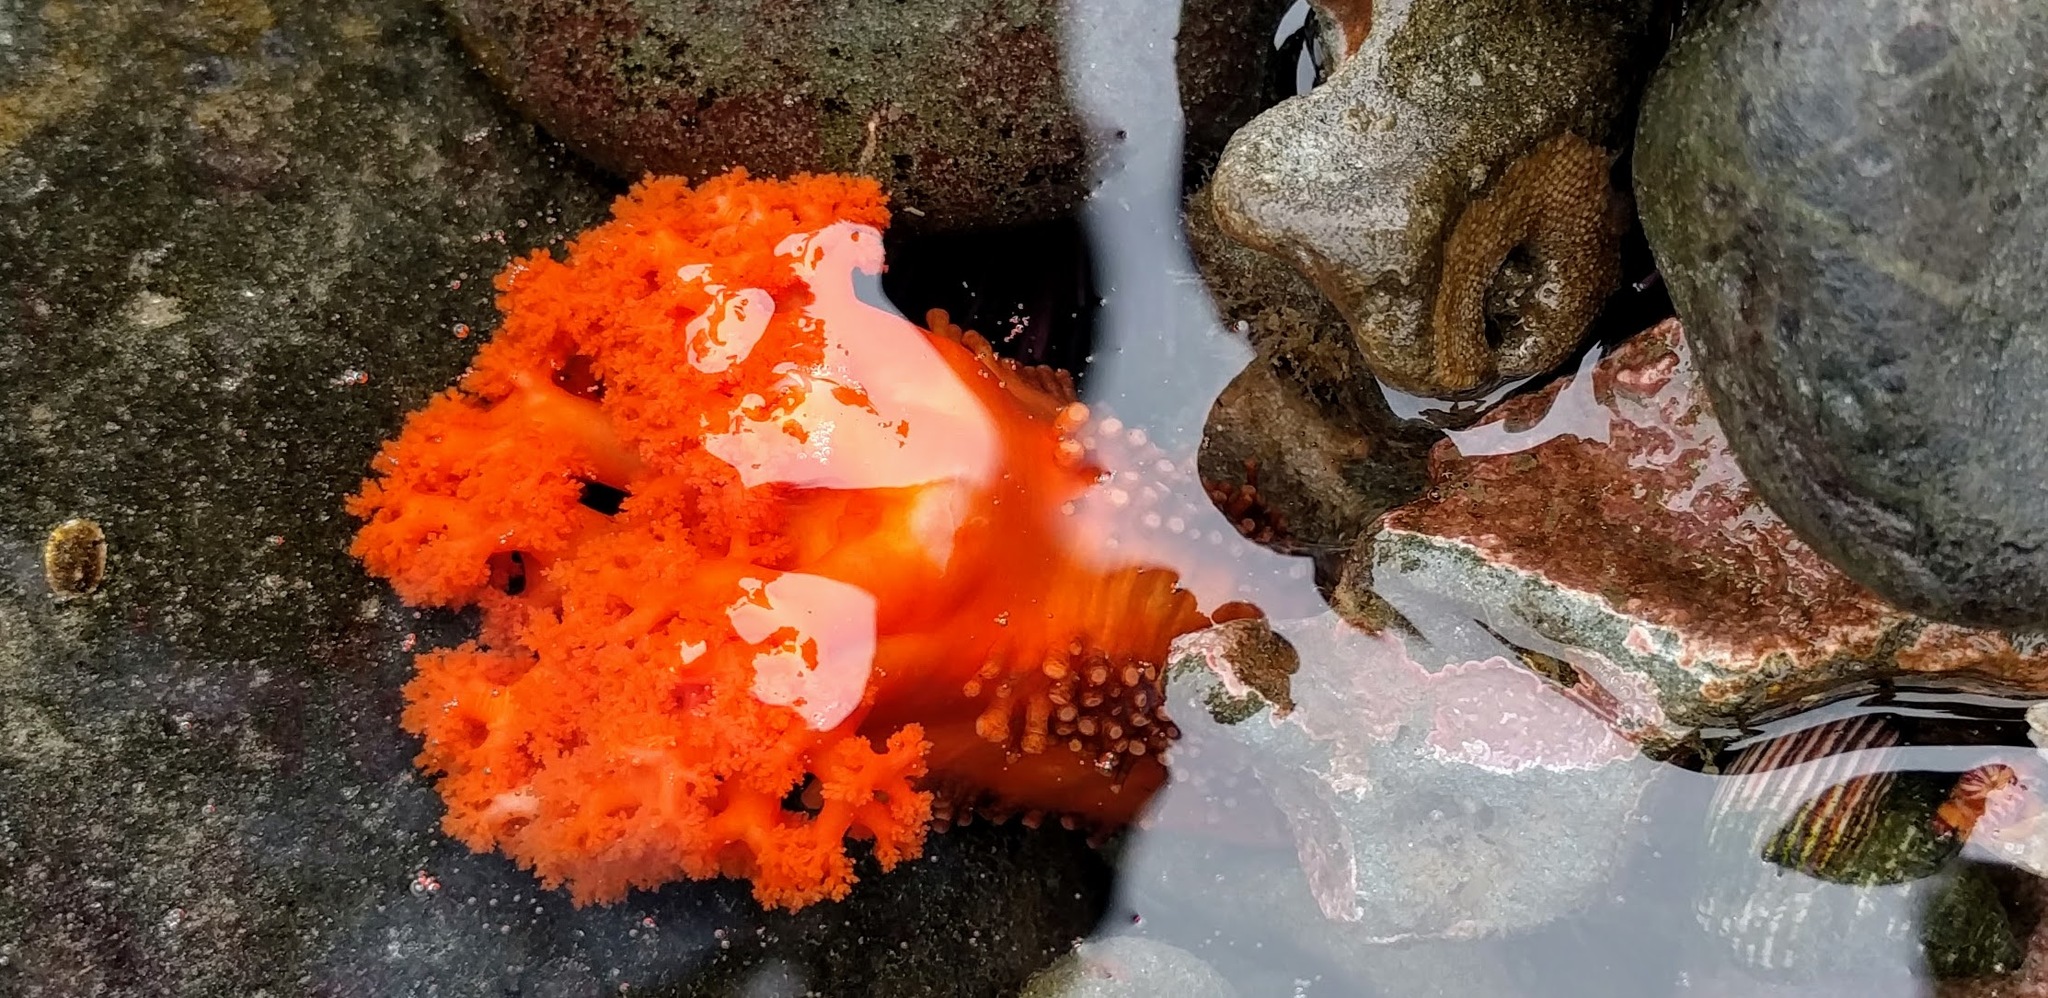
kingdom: Animalia
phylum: Echinodermata
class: Holothuroidea
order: Dendrochirotida
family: Cucumariidae
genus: Cucumaria
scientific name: Cucumaria miniata
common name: Orange sea cucumber
